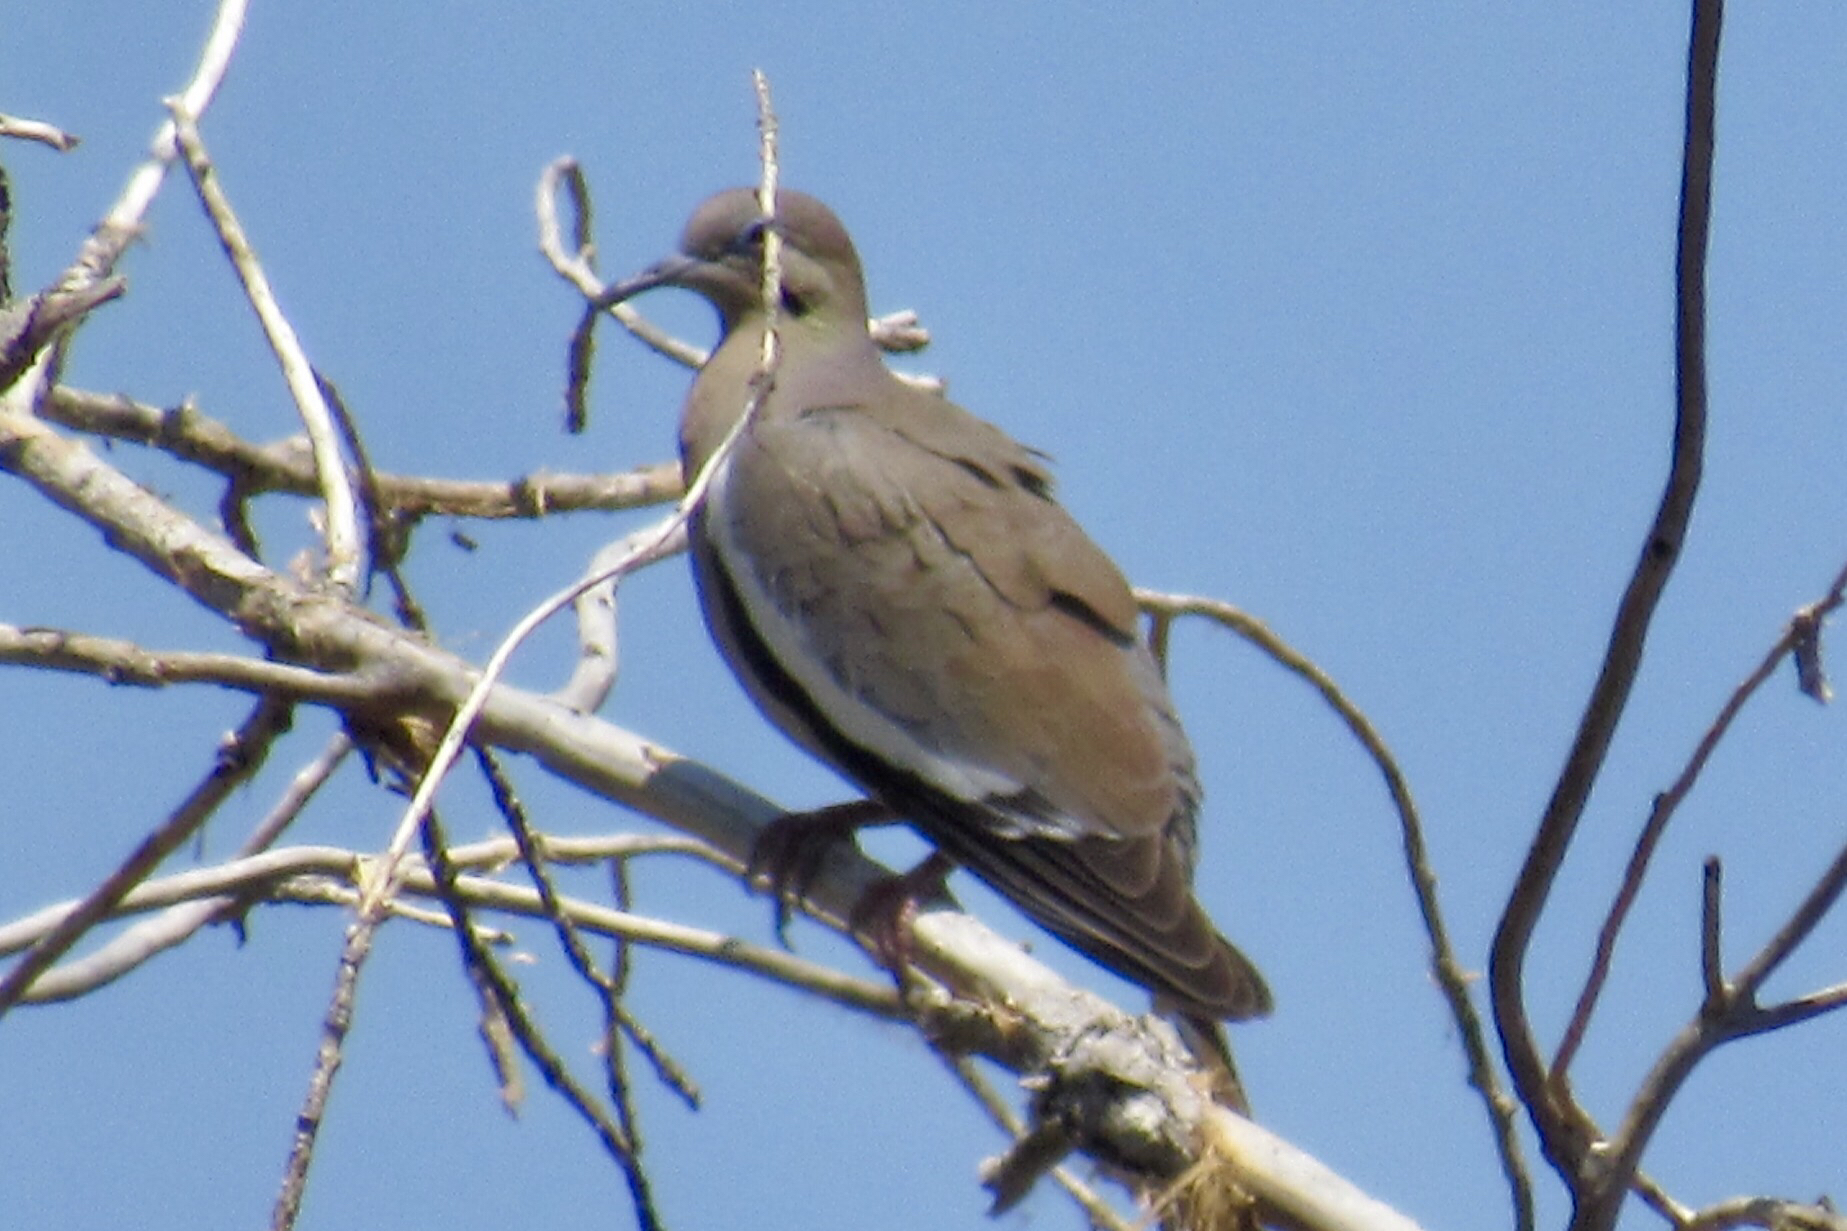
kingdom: Animalia
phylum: Chordata
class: Aves
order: Columbiformes
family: Columbidae
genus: Zenaida
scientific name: Zenaida asiatica
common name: White-winged dove
